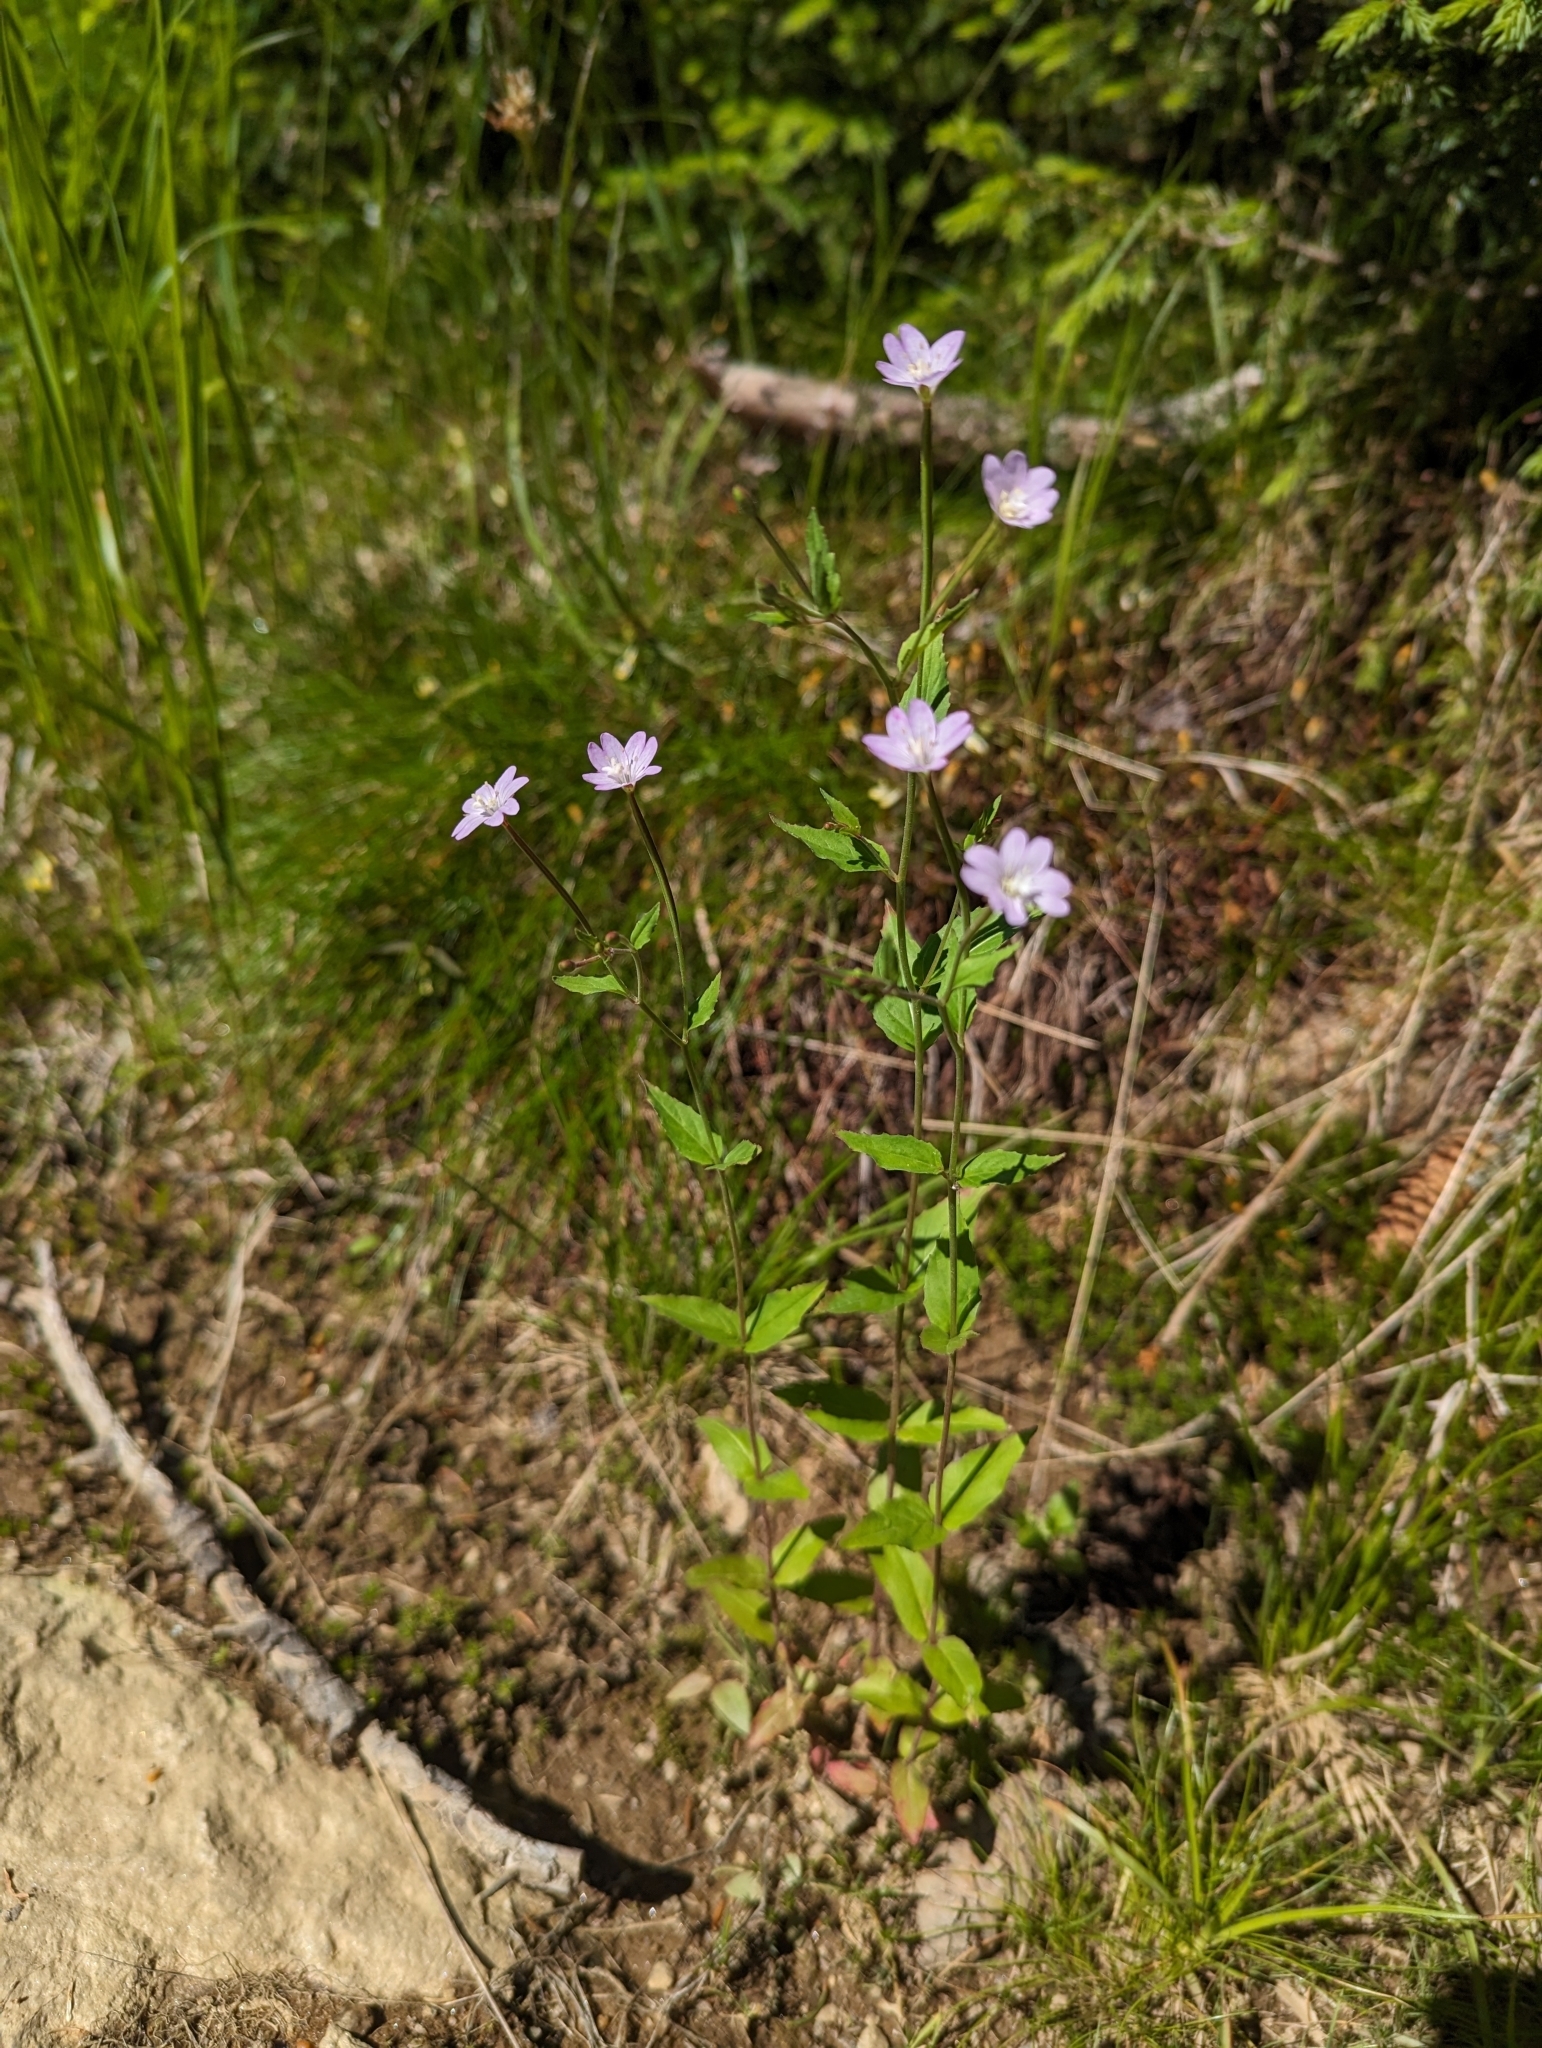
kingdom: Plantae
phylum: Tracheophyta
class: Magnoliopsida
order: Myrtales
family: Onagraceae
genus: Epilobium
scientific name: Epilobium montanum
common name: Broad-leaved willowherb
